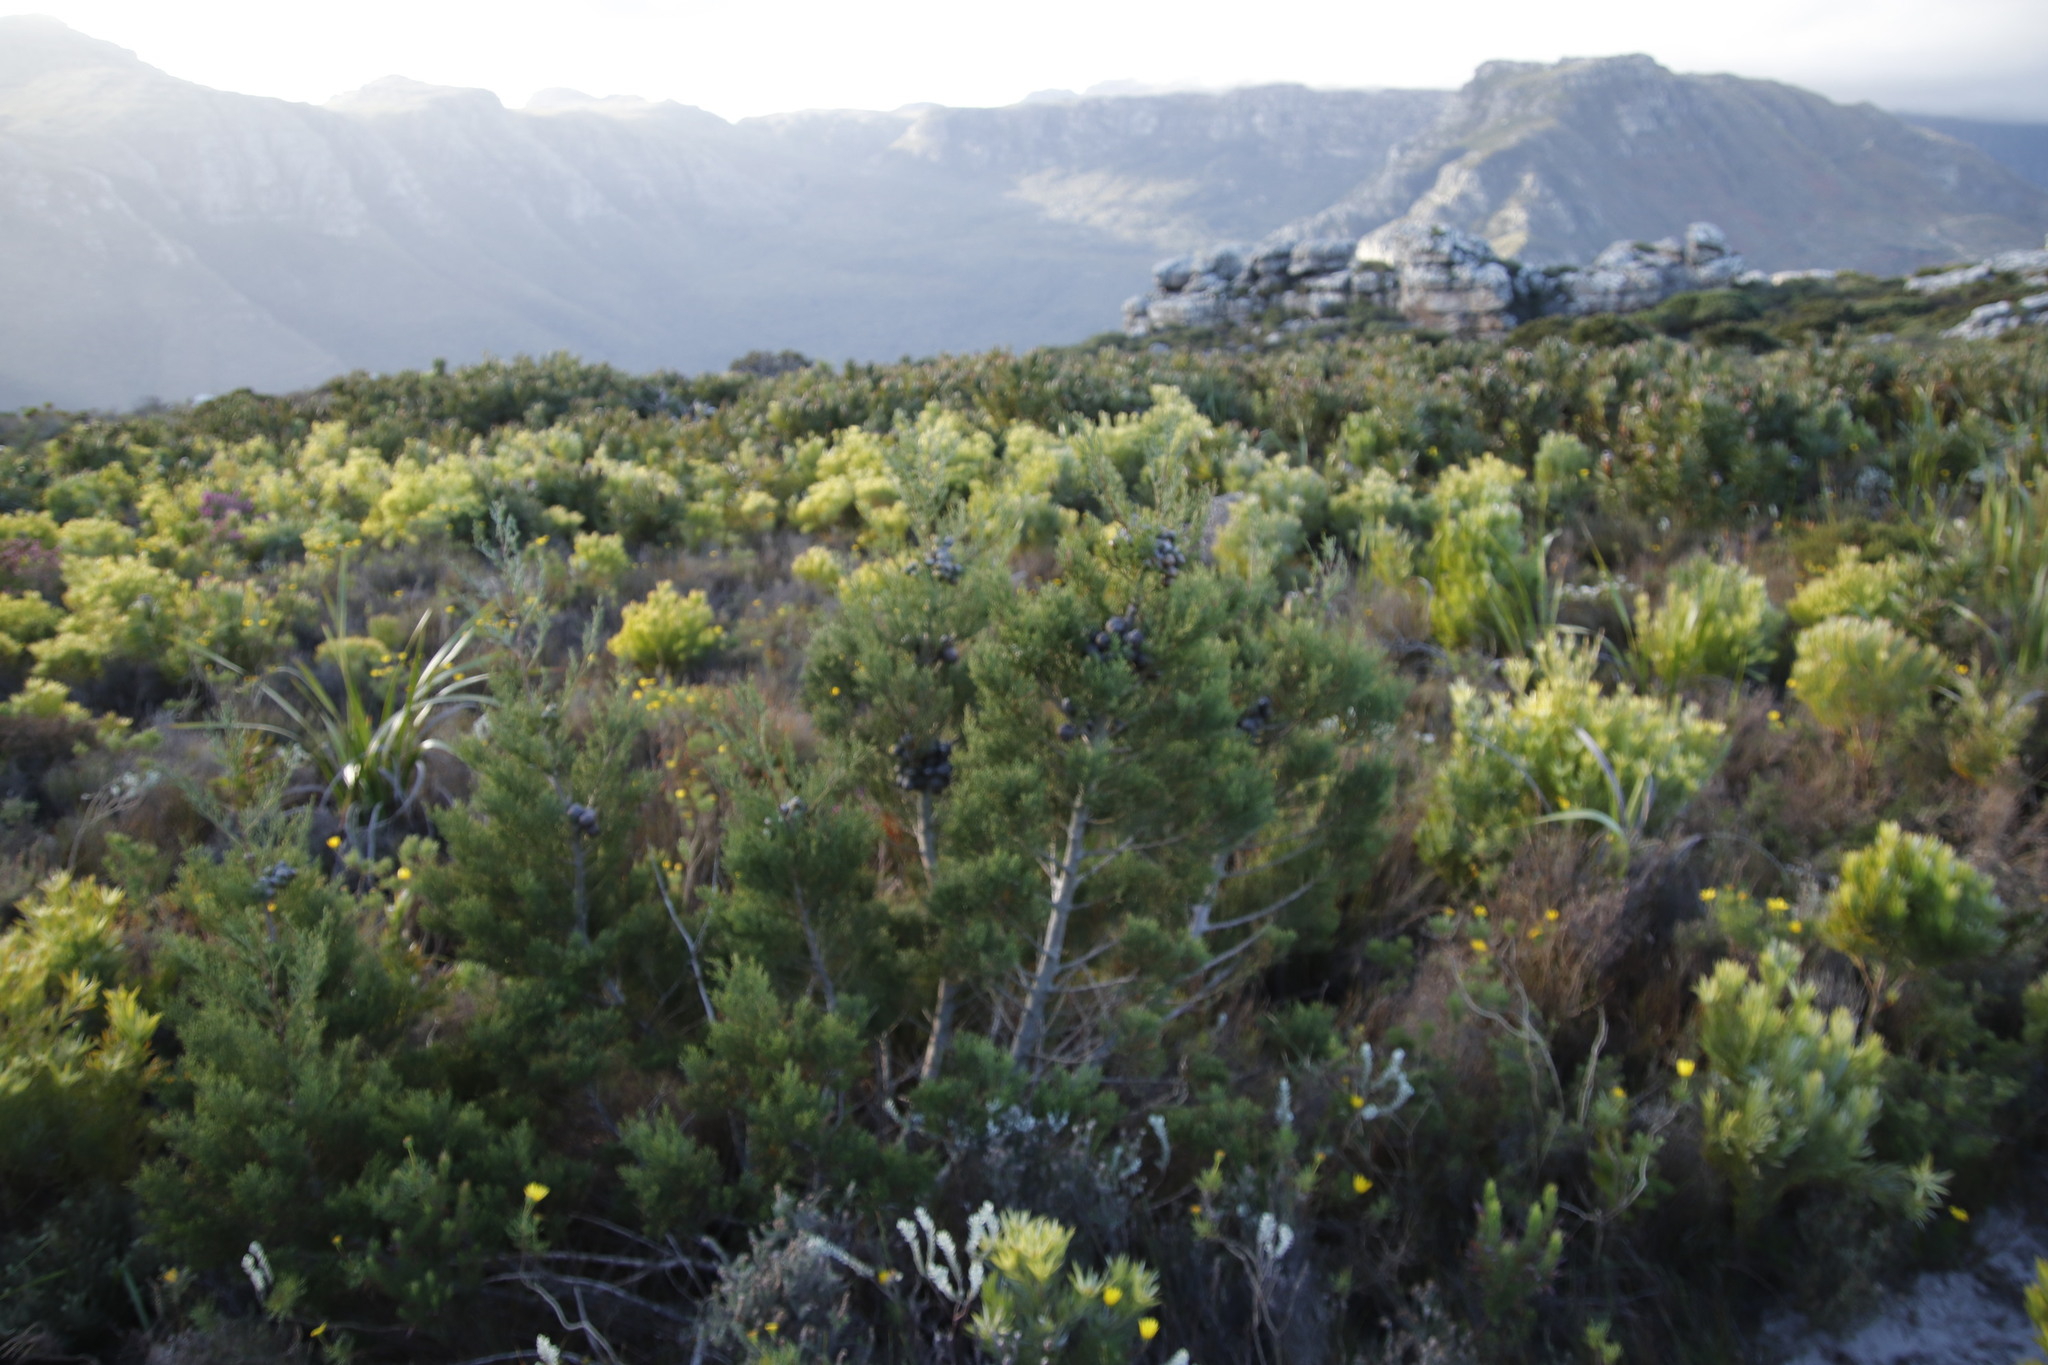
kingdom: Plantae
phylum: Tracheophyta
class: Pinopsida
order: Pinales
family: Cupressaceae
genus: Widdringtonia
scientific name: Widdringtonia nodiflora
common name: Cape cypress
